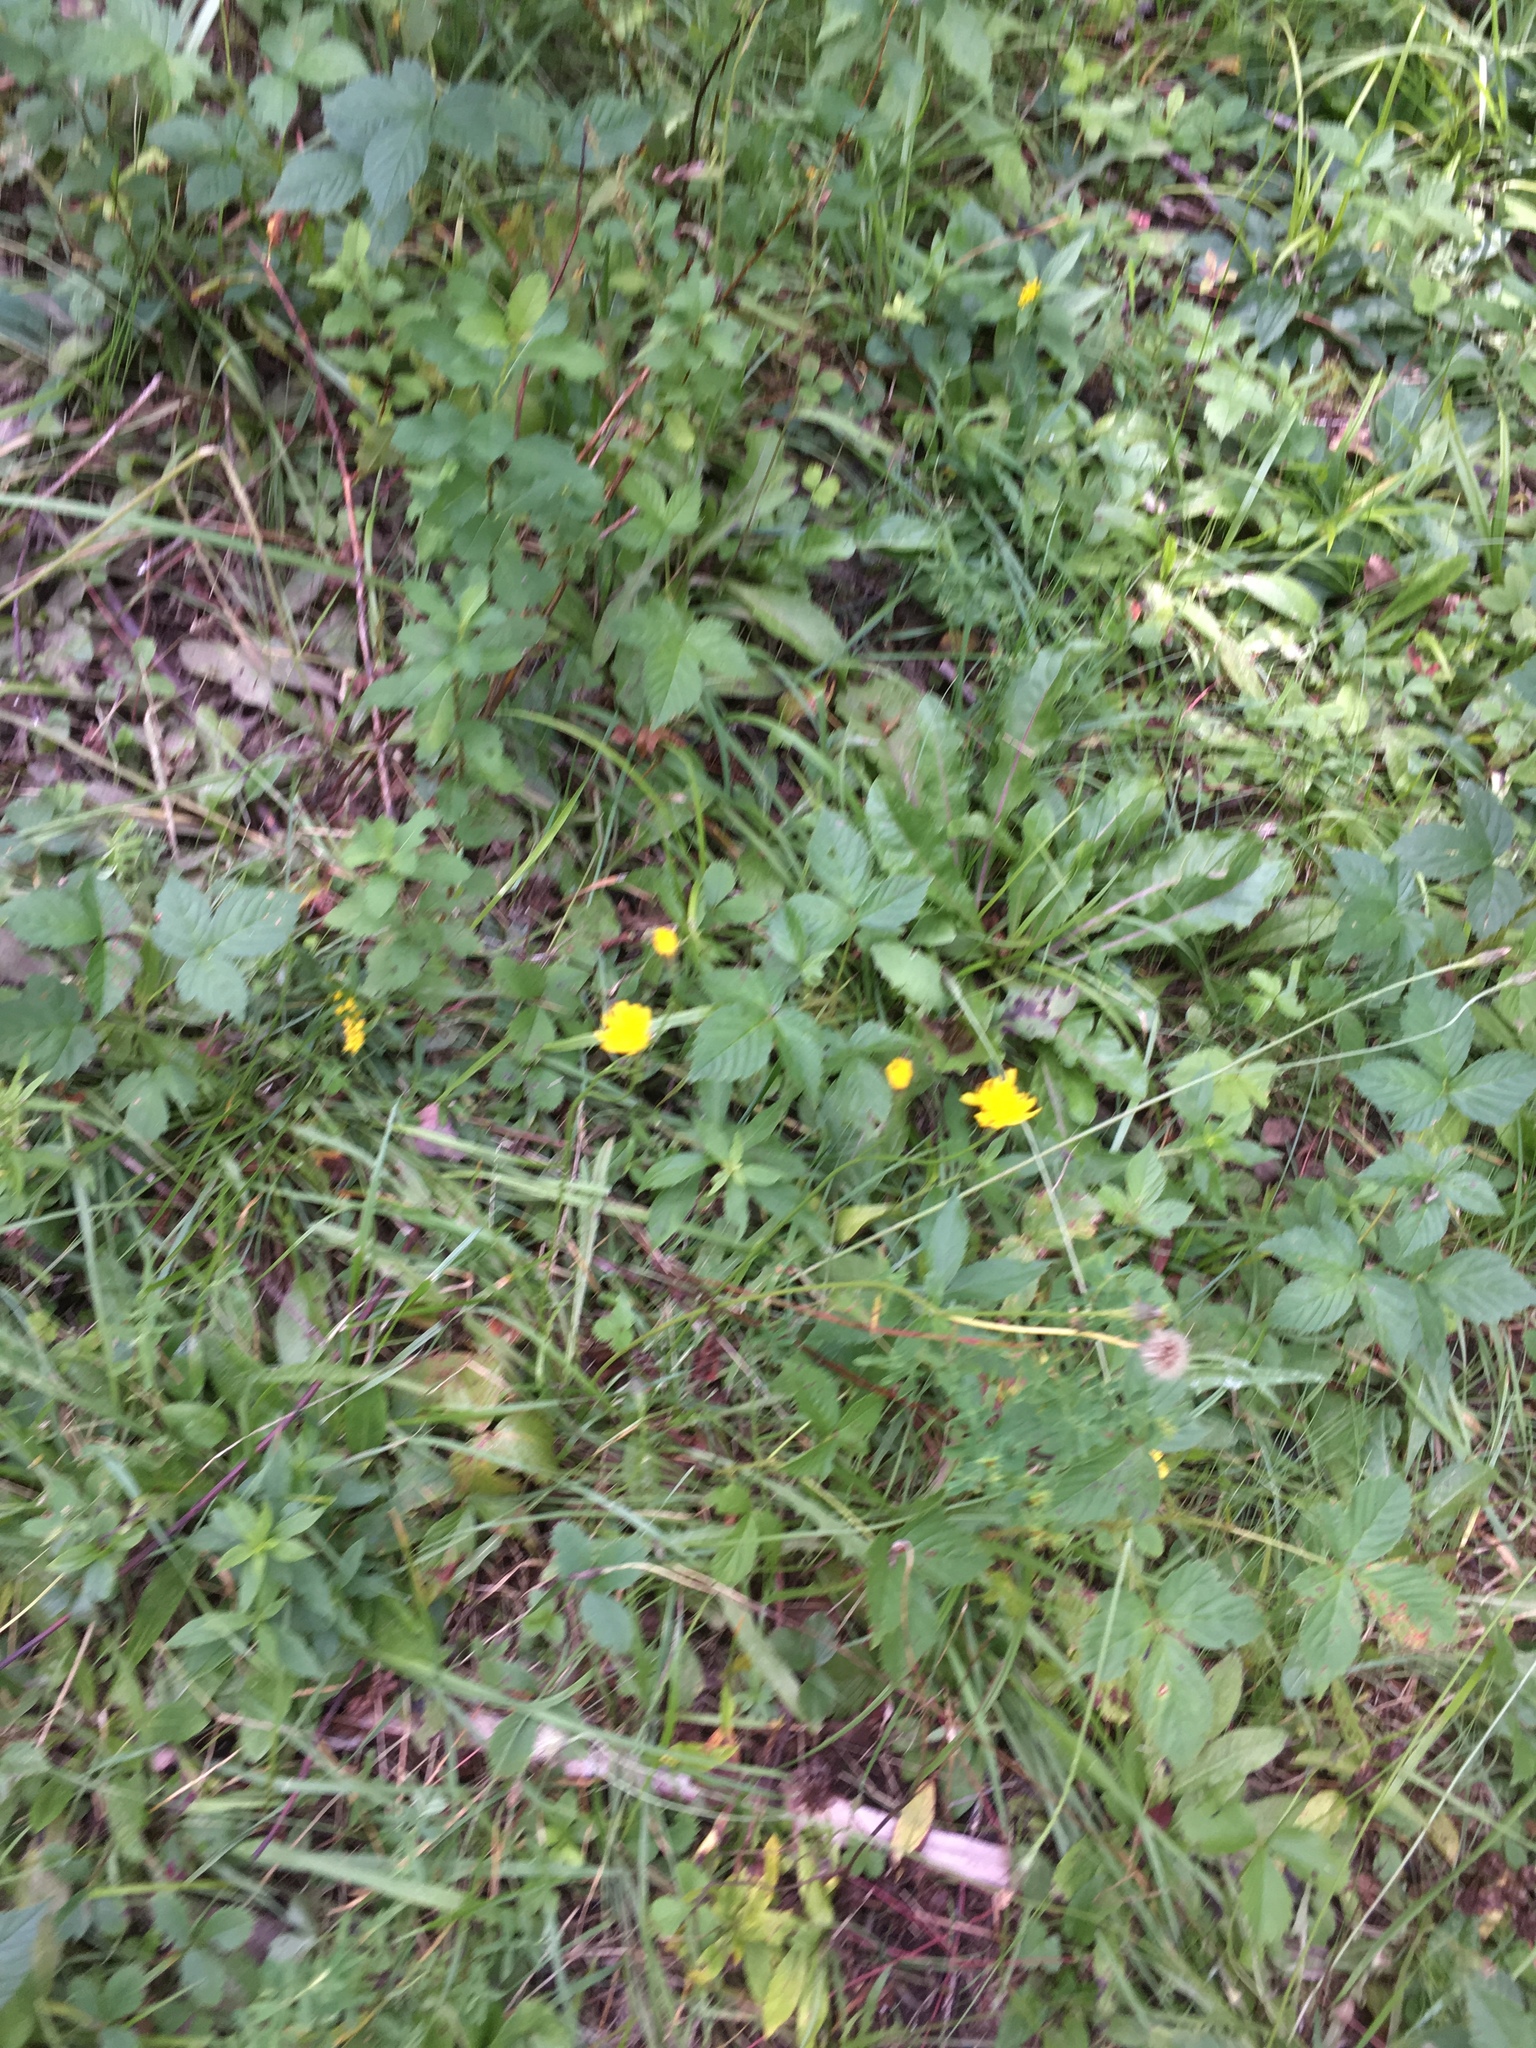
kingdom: Plantae
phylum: Tracheophyta
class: Magnoliopsida
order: Asterales
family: Asteraceae
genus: Scorzoneroides
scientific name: Scorzoneroides autumnalis
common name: Autumn hawkbit
